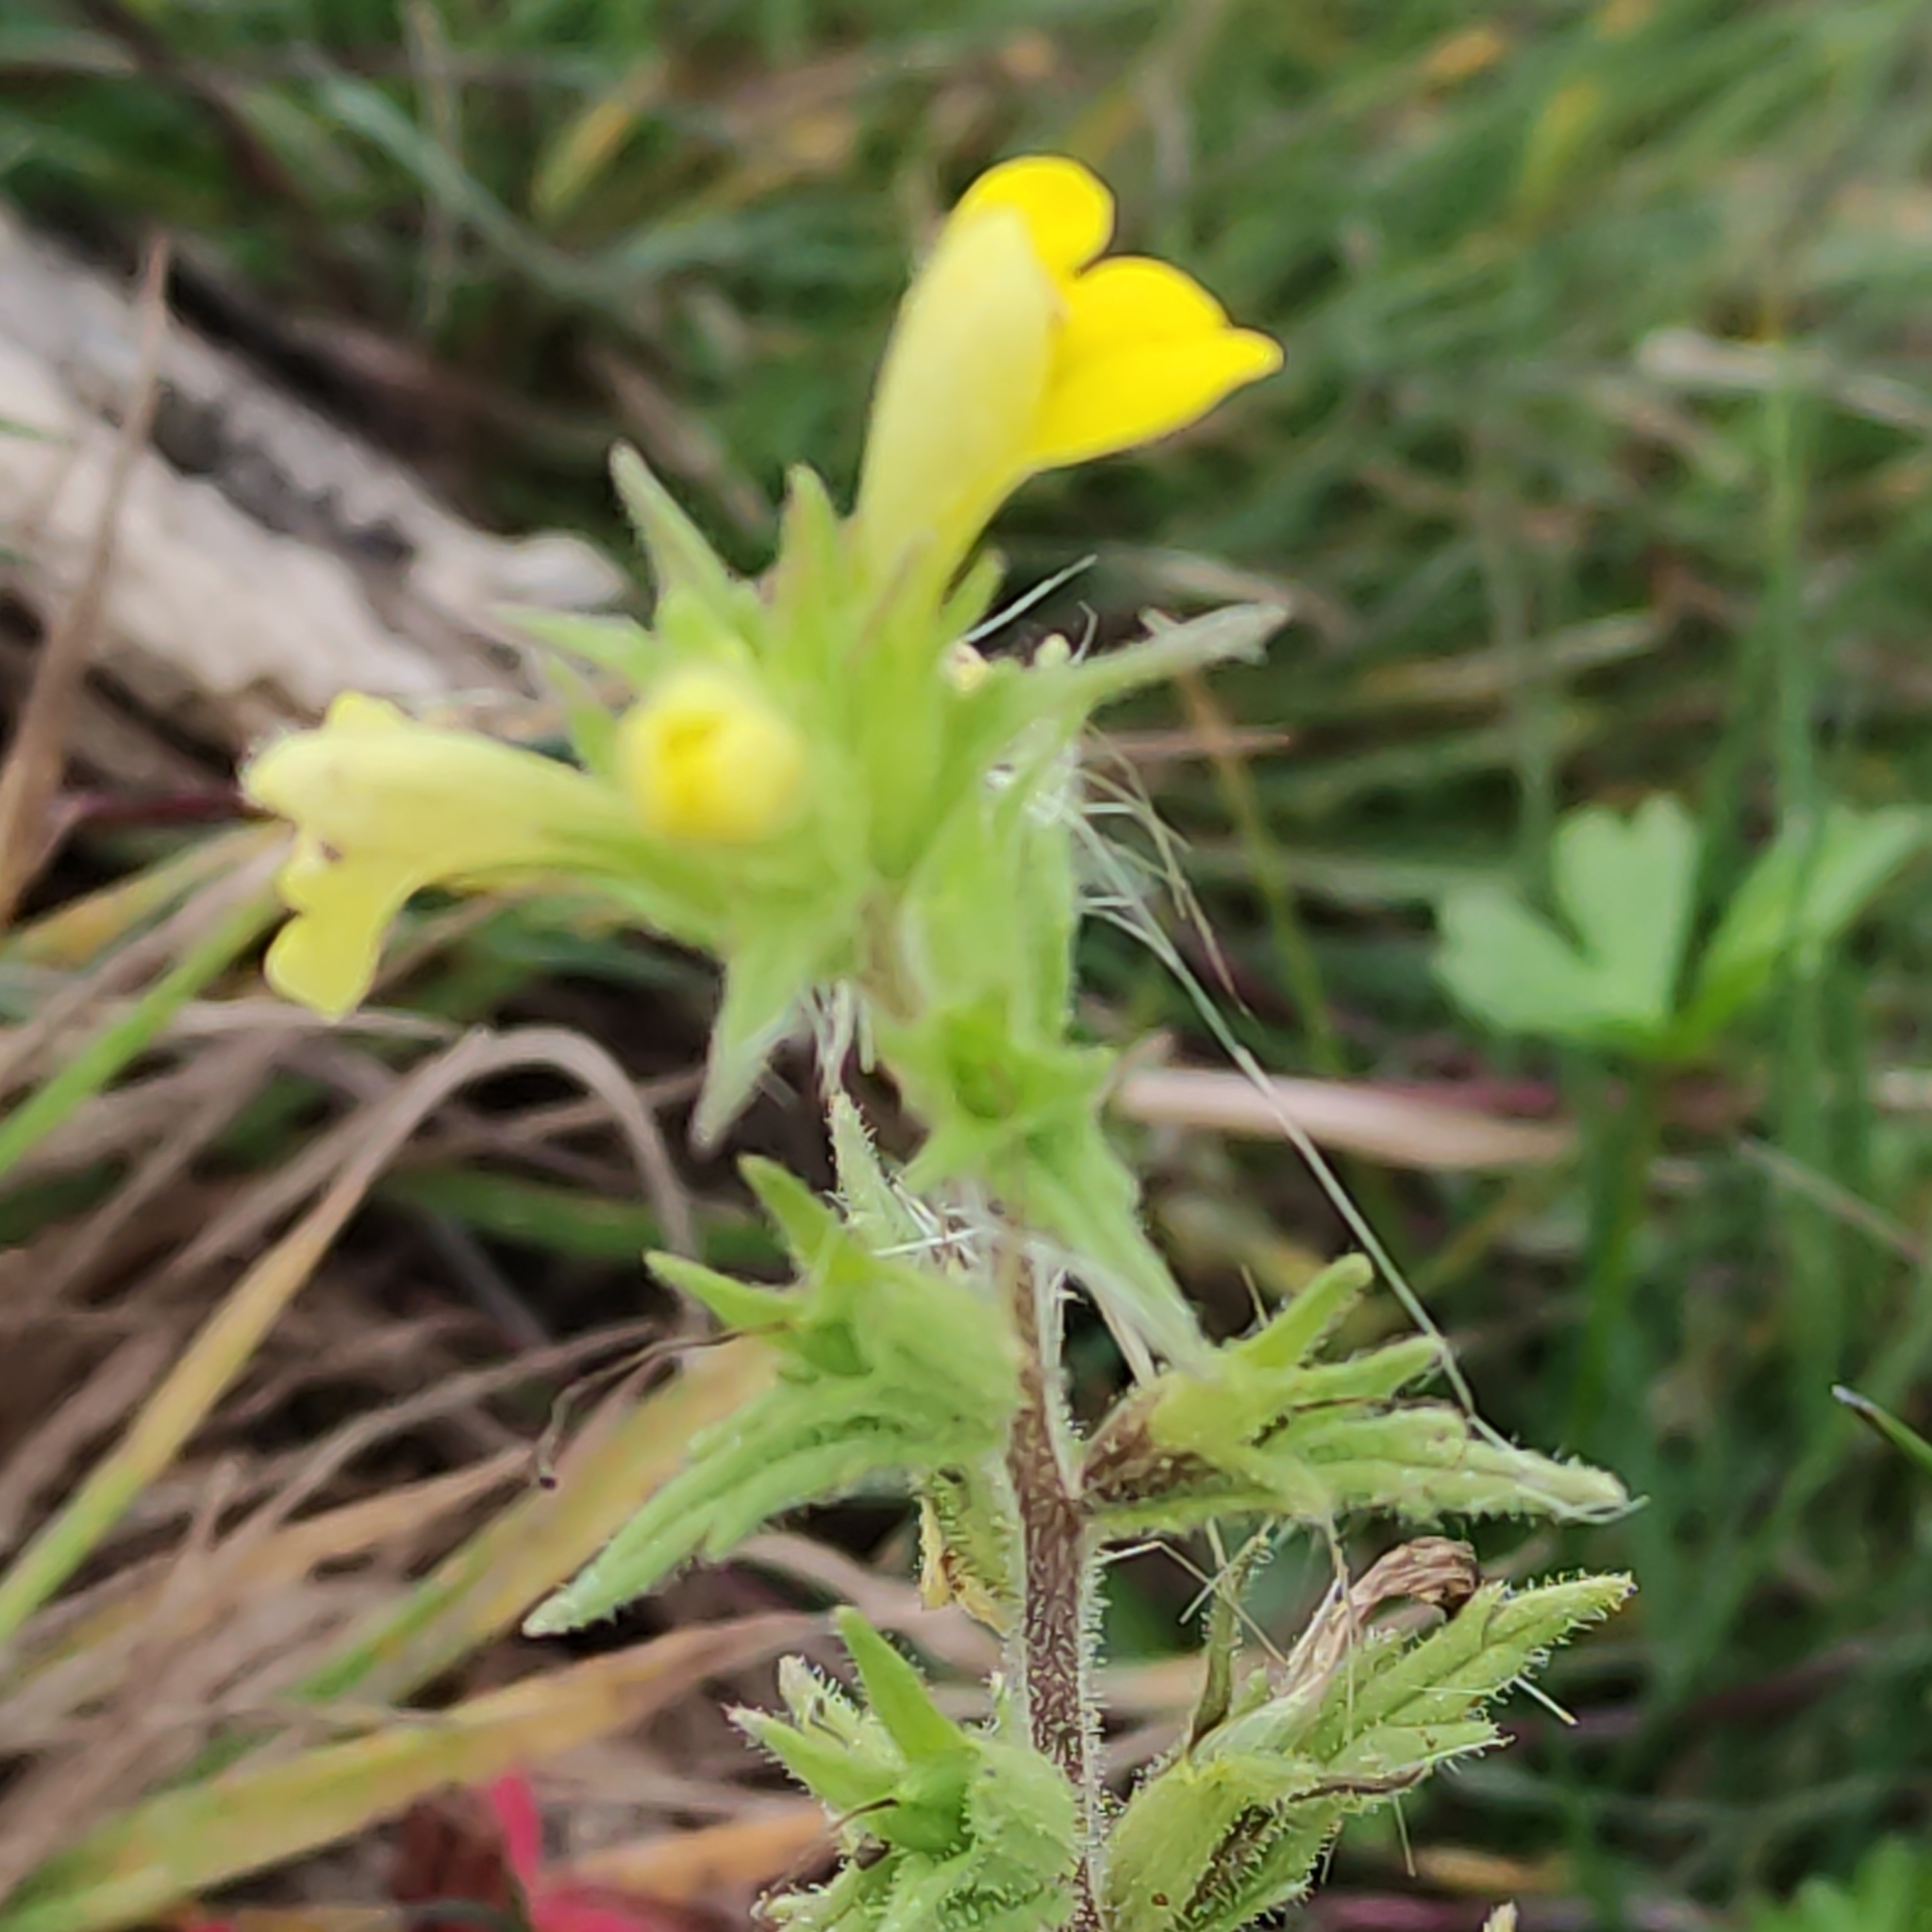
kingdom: Plantae
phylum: Tracheophyta
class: Magnoliopsida
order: Lamiales
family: Orobanchaceae
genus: Bellardia
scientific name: Bellardia viscosa
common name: Sticky parentucellia
